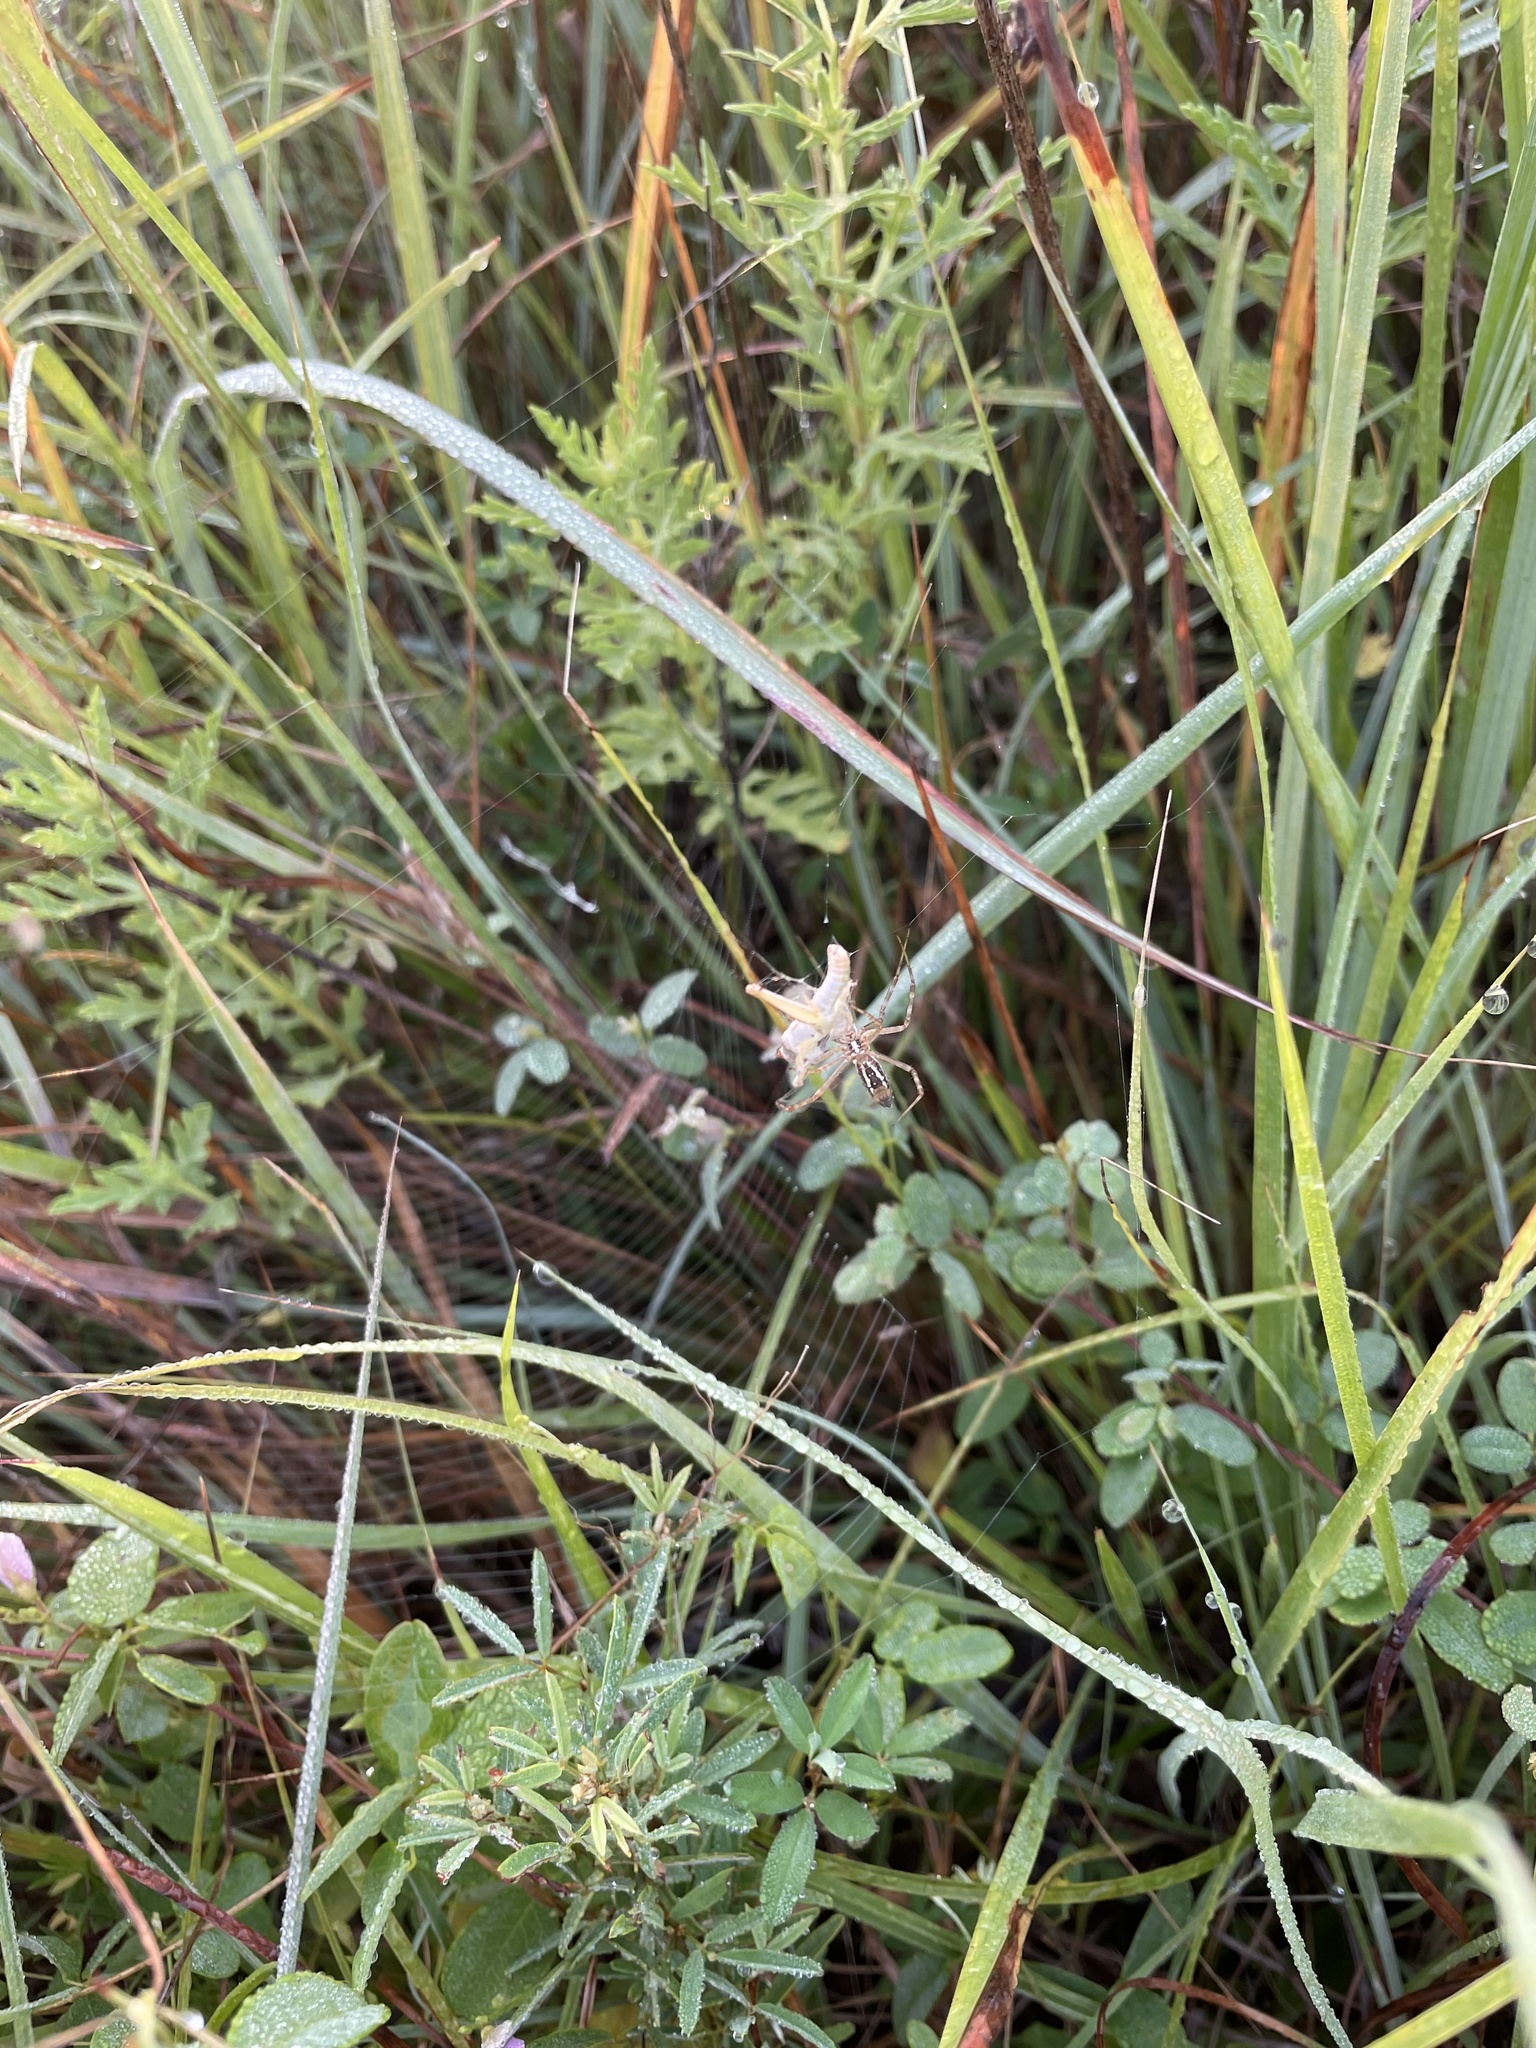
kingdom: Animalia
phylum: Arthropoda
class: Arachnida
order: Araneae
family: Araneidae
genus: Argiope
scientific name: Argiope trifasciata
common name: Banded garden spider
